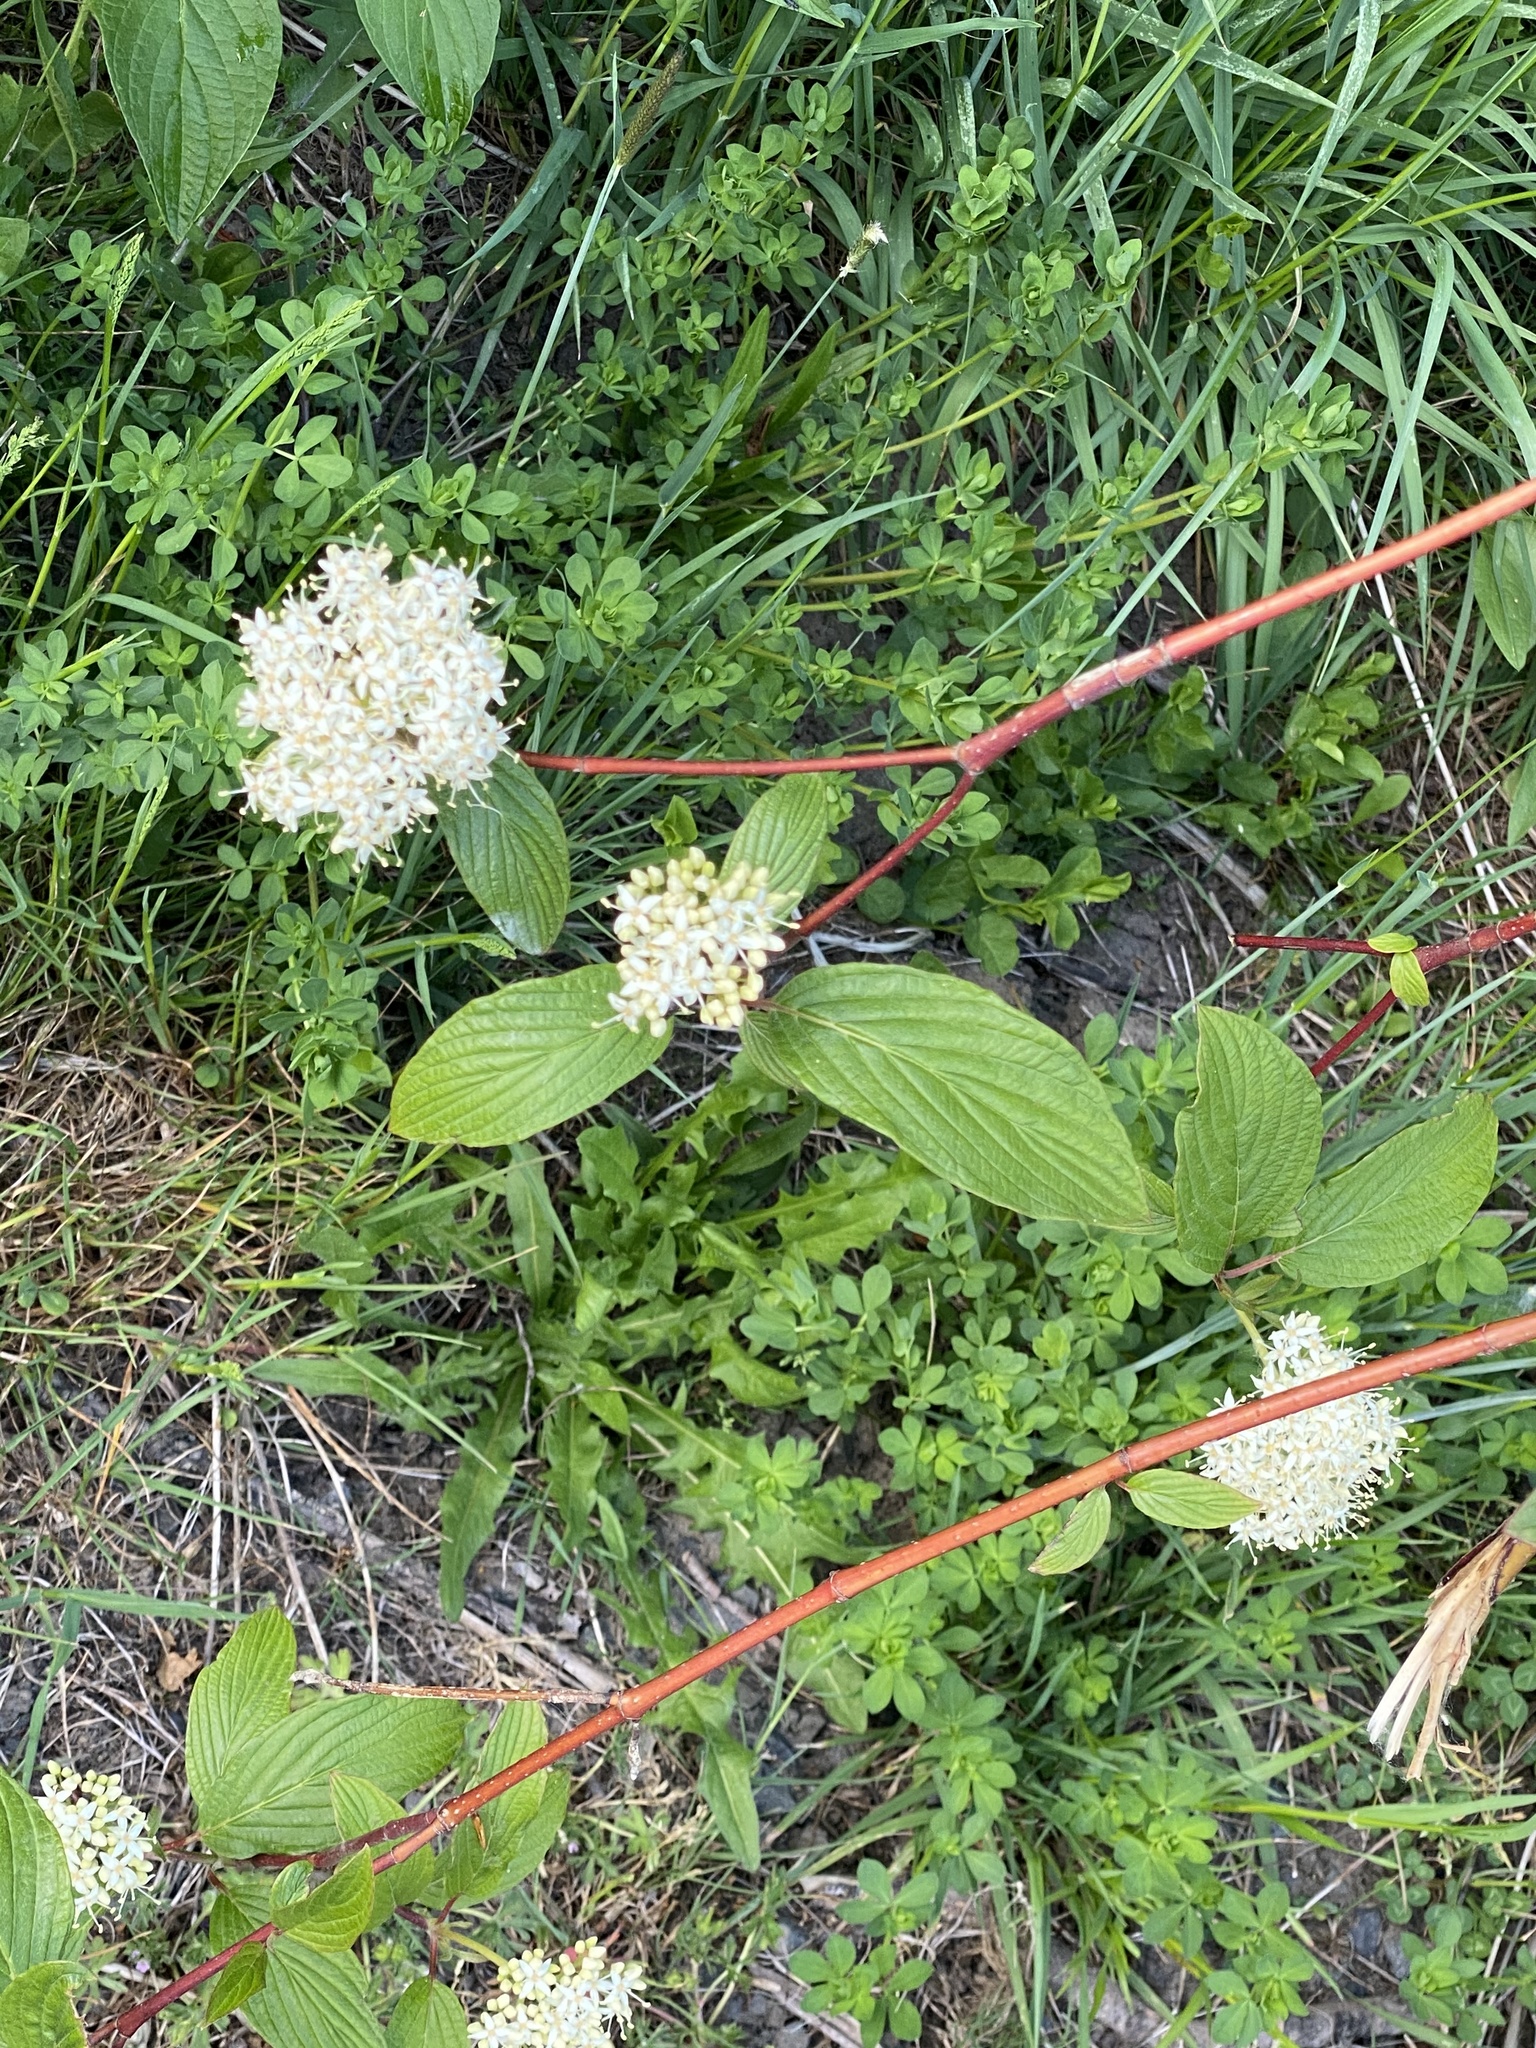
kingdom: Plantae
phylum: Tracheophyta
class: Magnoliopsida
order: Cornales
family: Cornaceae
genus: Cornus
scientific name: Cornus sericea
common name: Red-osier dogwood
